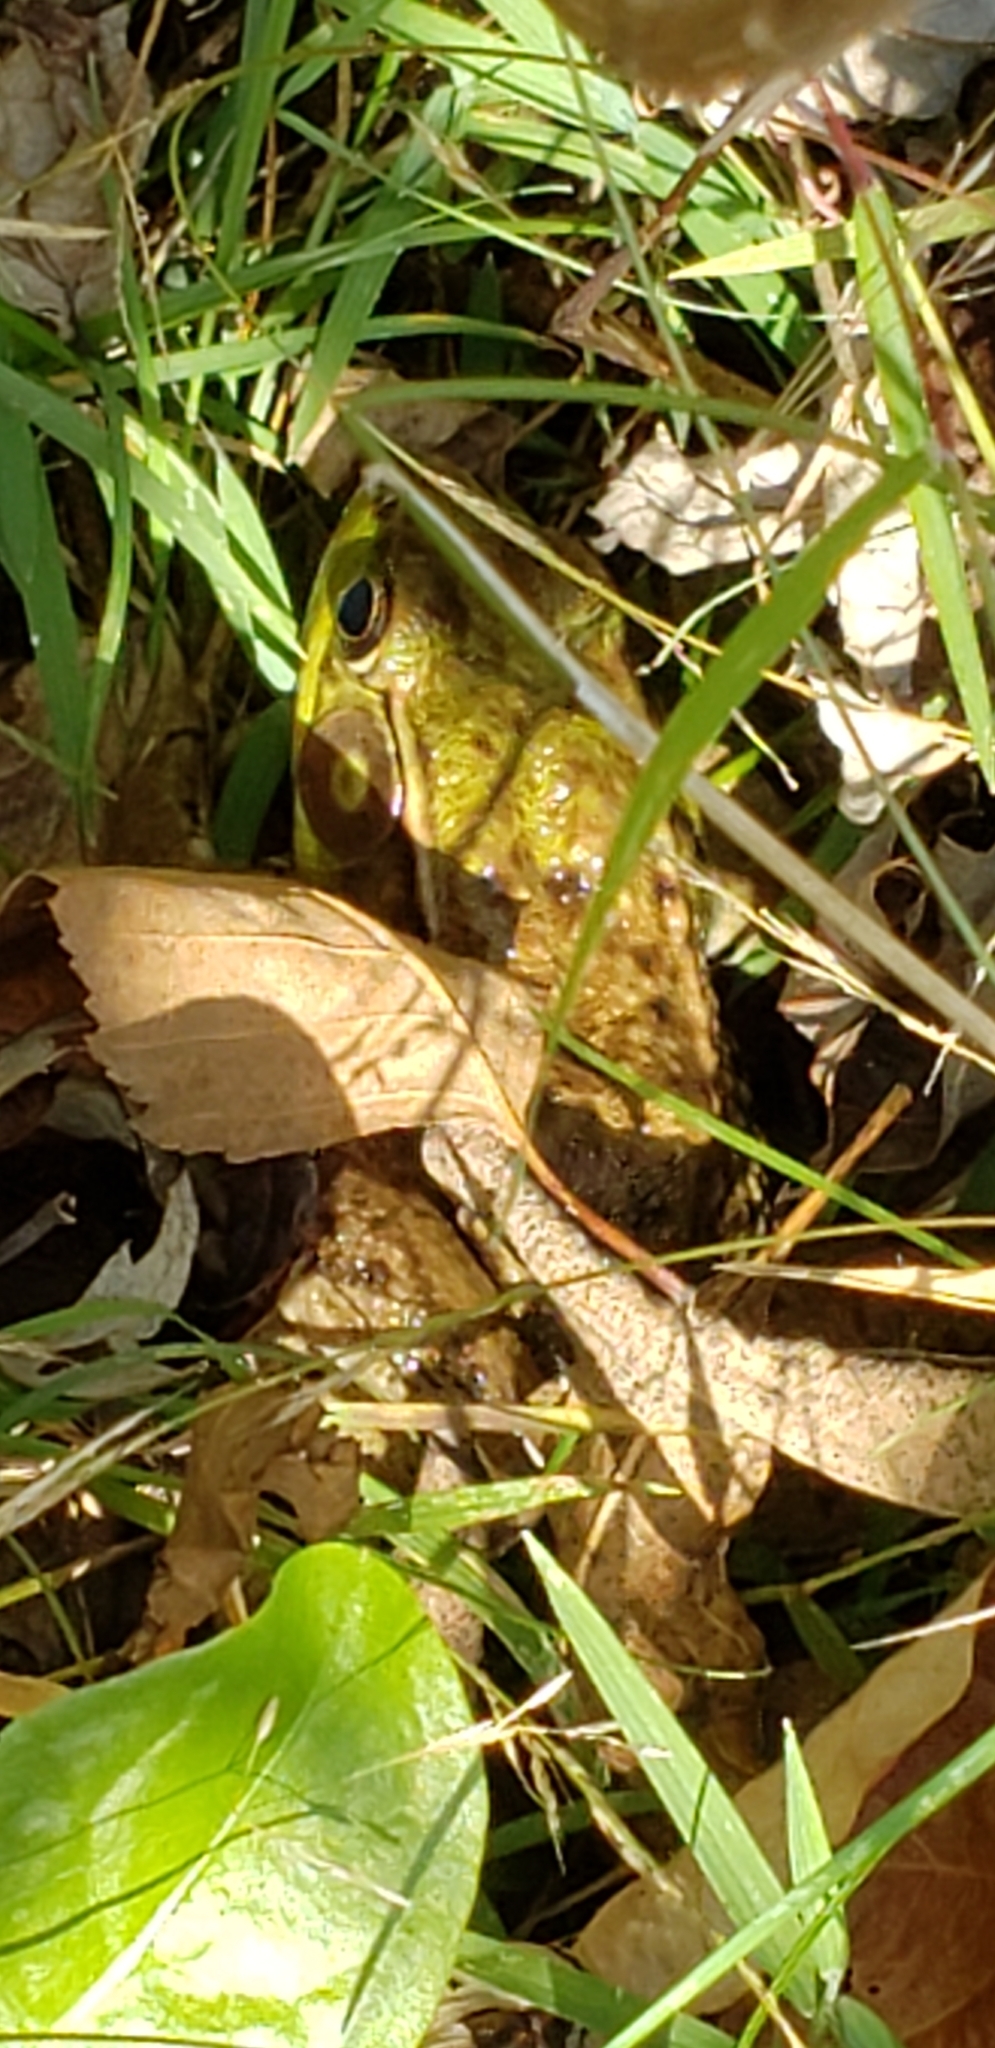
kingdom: Animalia
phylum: Chordata
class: Amphibia
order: Anura
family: Ranidae
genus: Lithobates
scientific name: Lithobates clamitans
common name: Green frog
